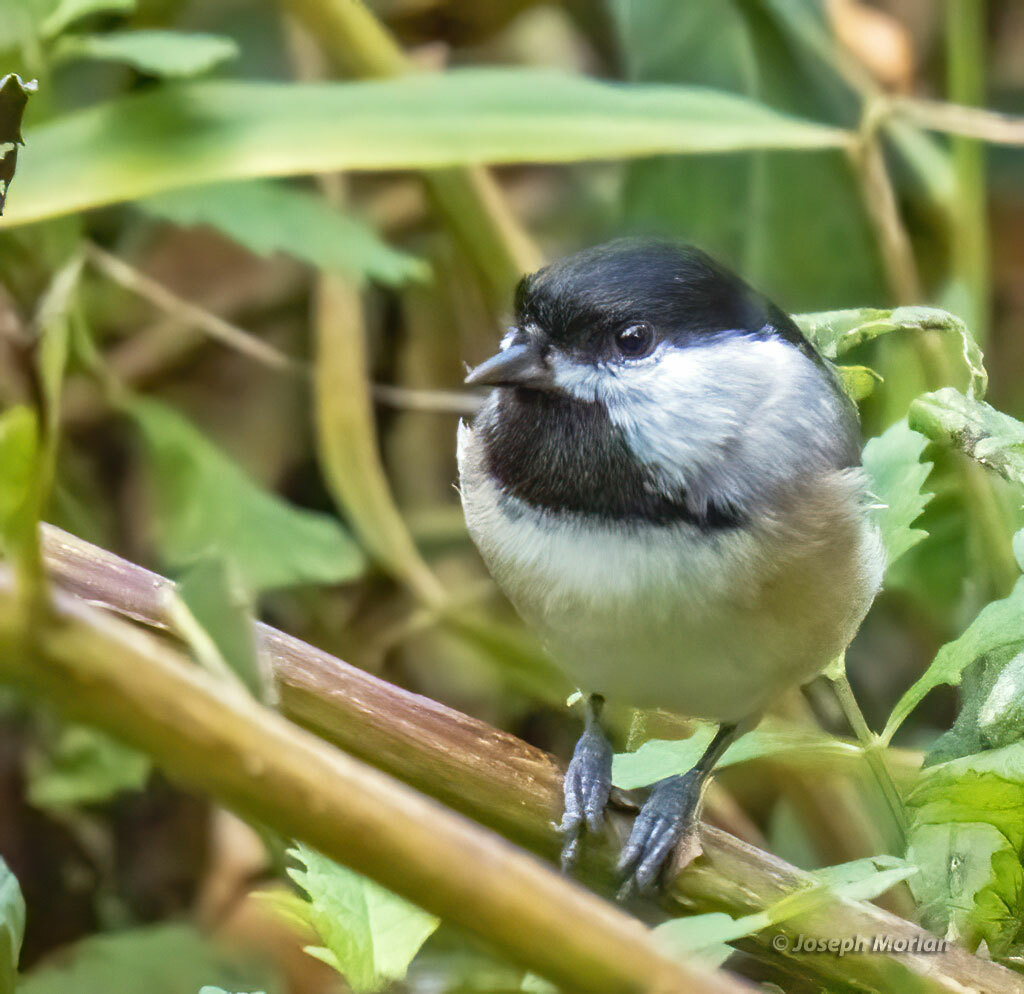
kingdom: Animalia
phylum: Chordata
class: Aves
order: Passeriformes
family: Paridae
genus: Poecile
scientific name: Poecile carolinensis
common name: Carolina chickadee
